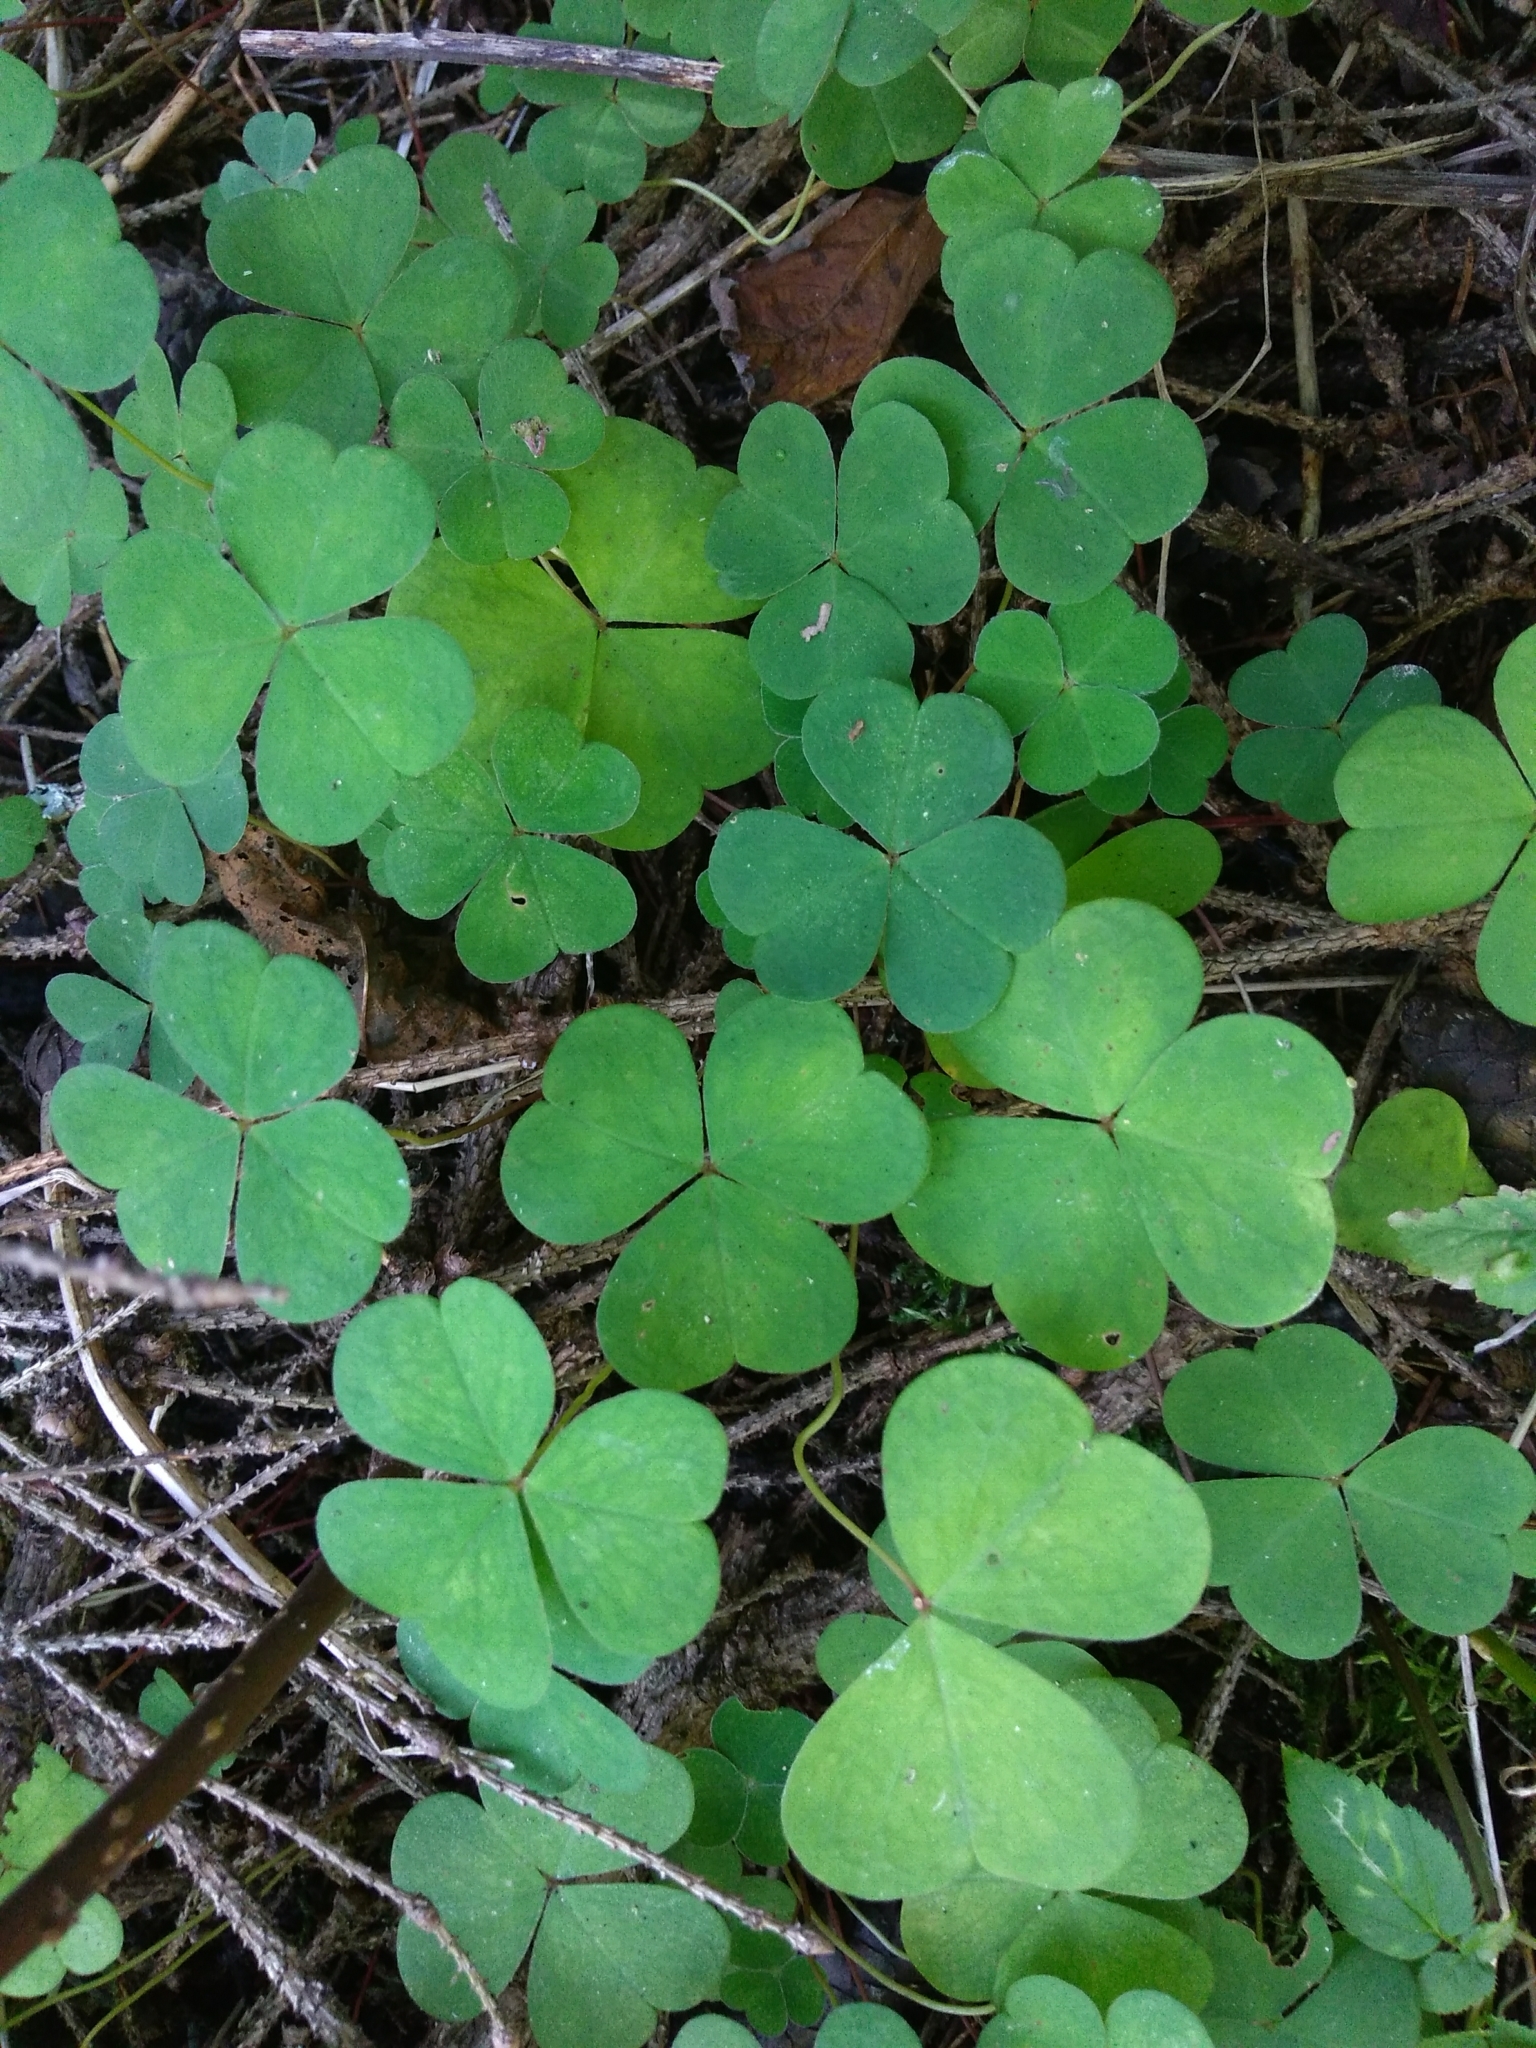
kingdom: Plantae
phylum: Tracheophyta
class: Magnoliopsida
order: Oxalidales
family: Oxalidaceae
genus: Oxalis
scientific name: Oxalis acetosella
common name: Wood-sorrel
